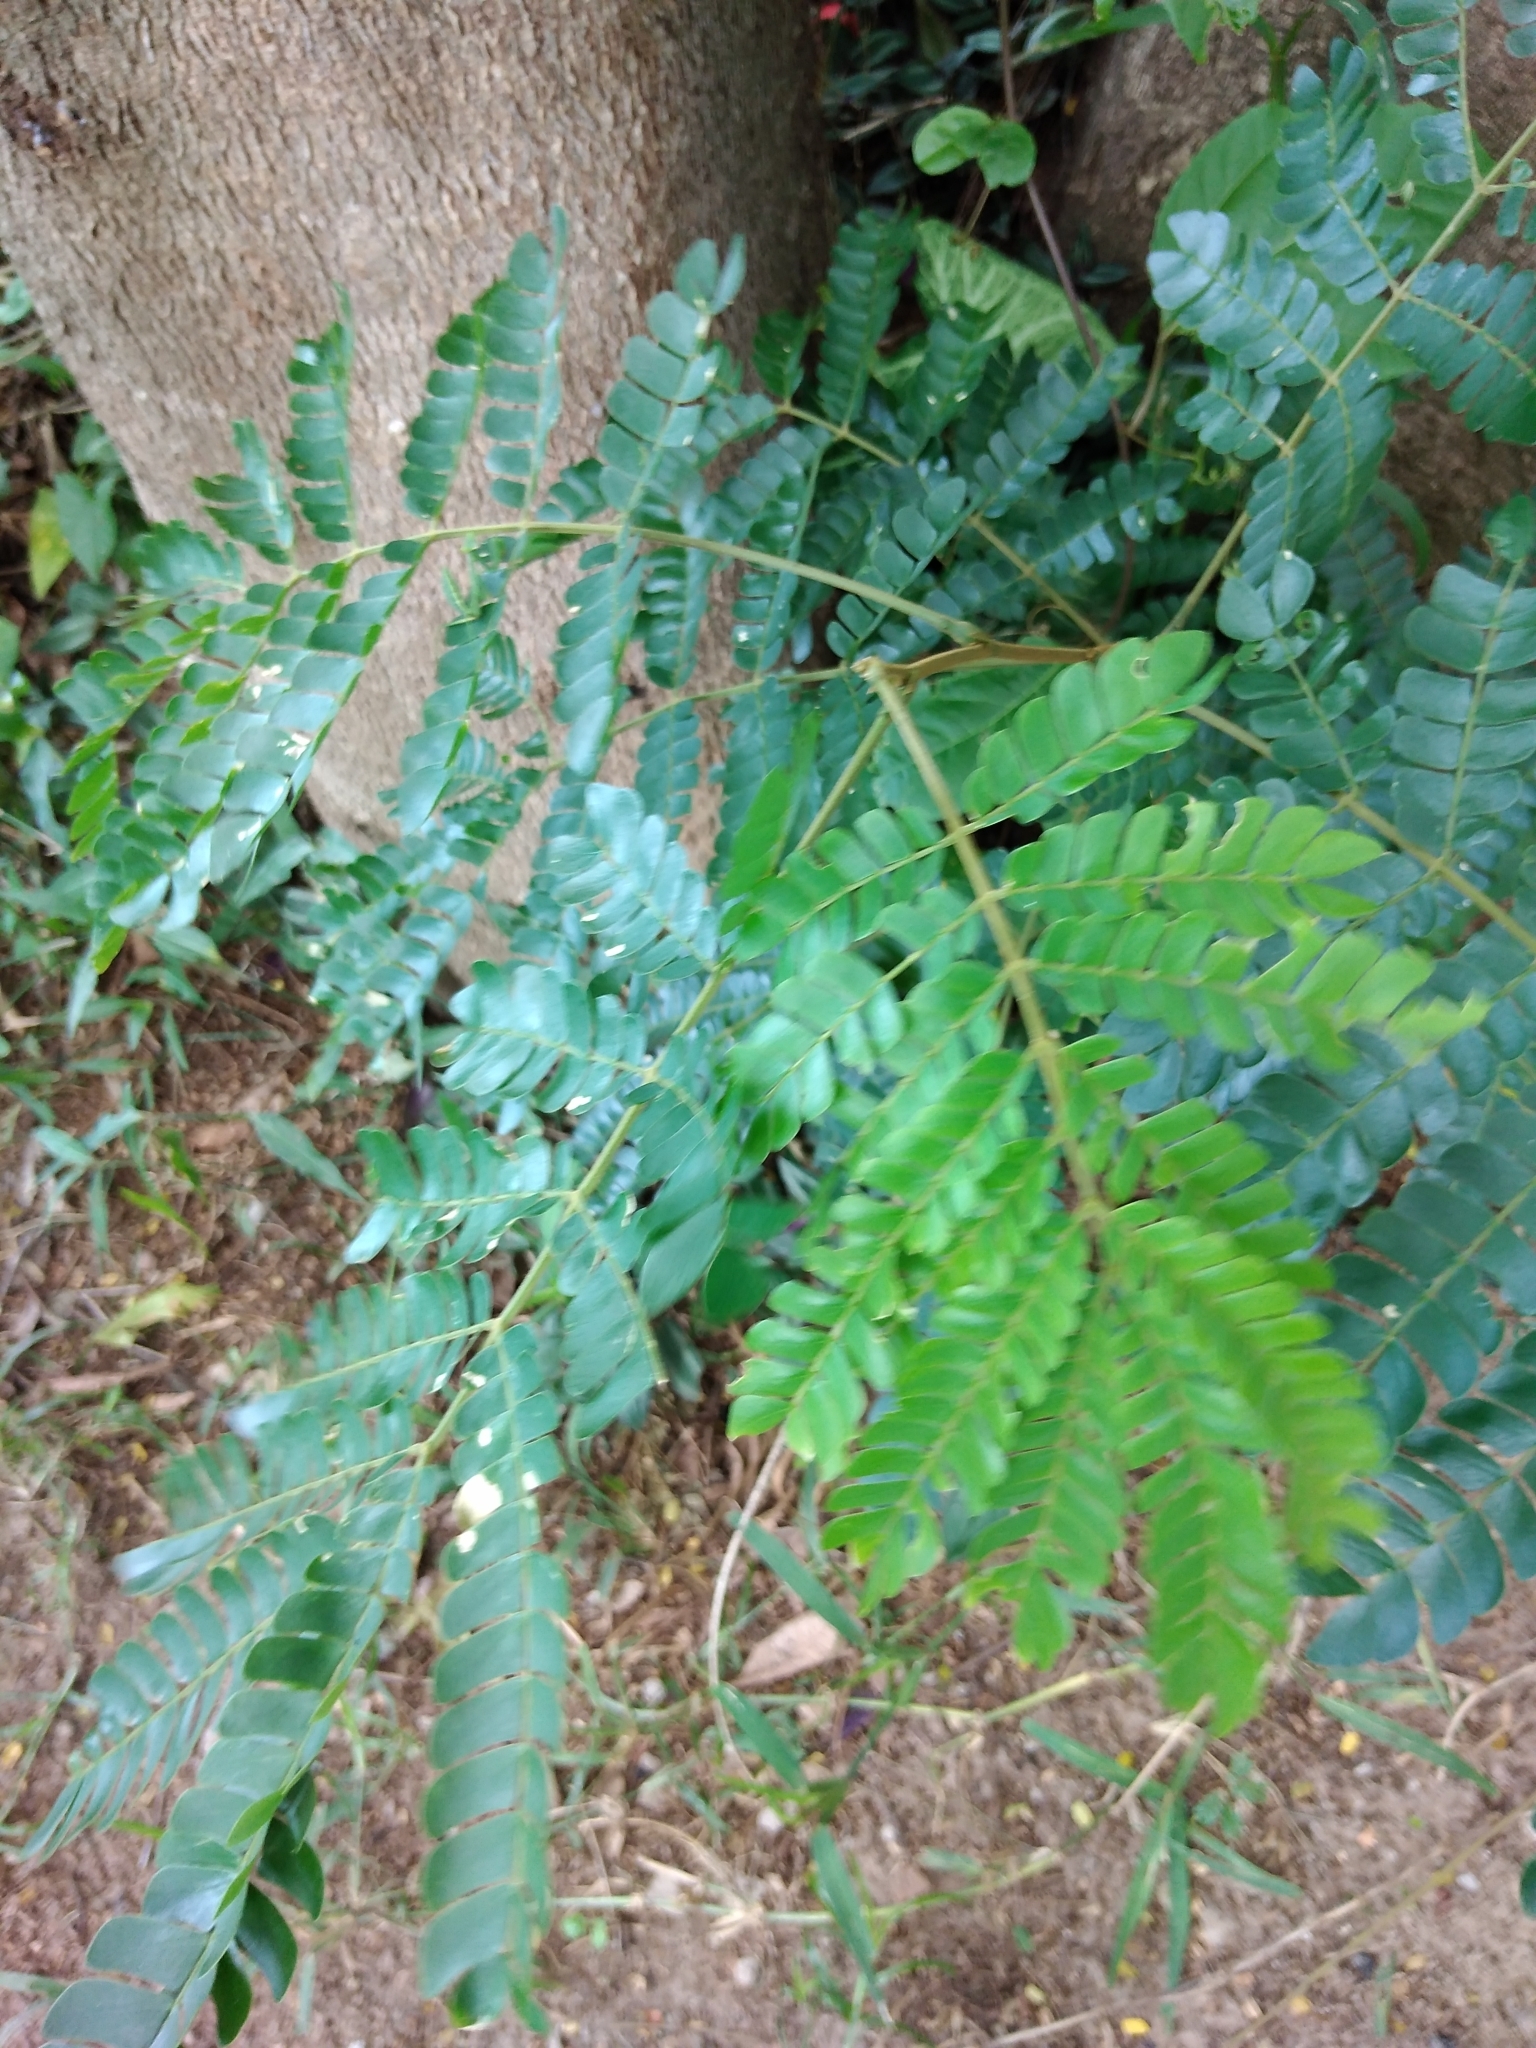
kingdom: Plantae
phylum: Tracheophyta
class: Magnoliopsida
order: Fabales
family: Fabaceae
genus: Albizia
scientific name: Albizia adianthifolia
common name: West african albizia
